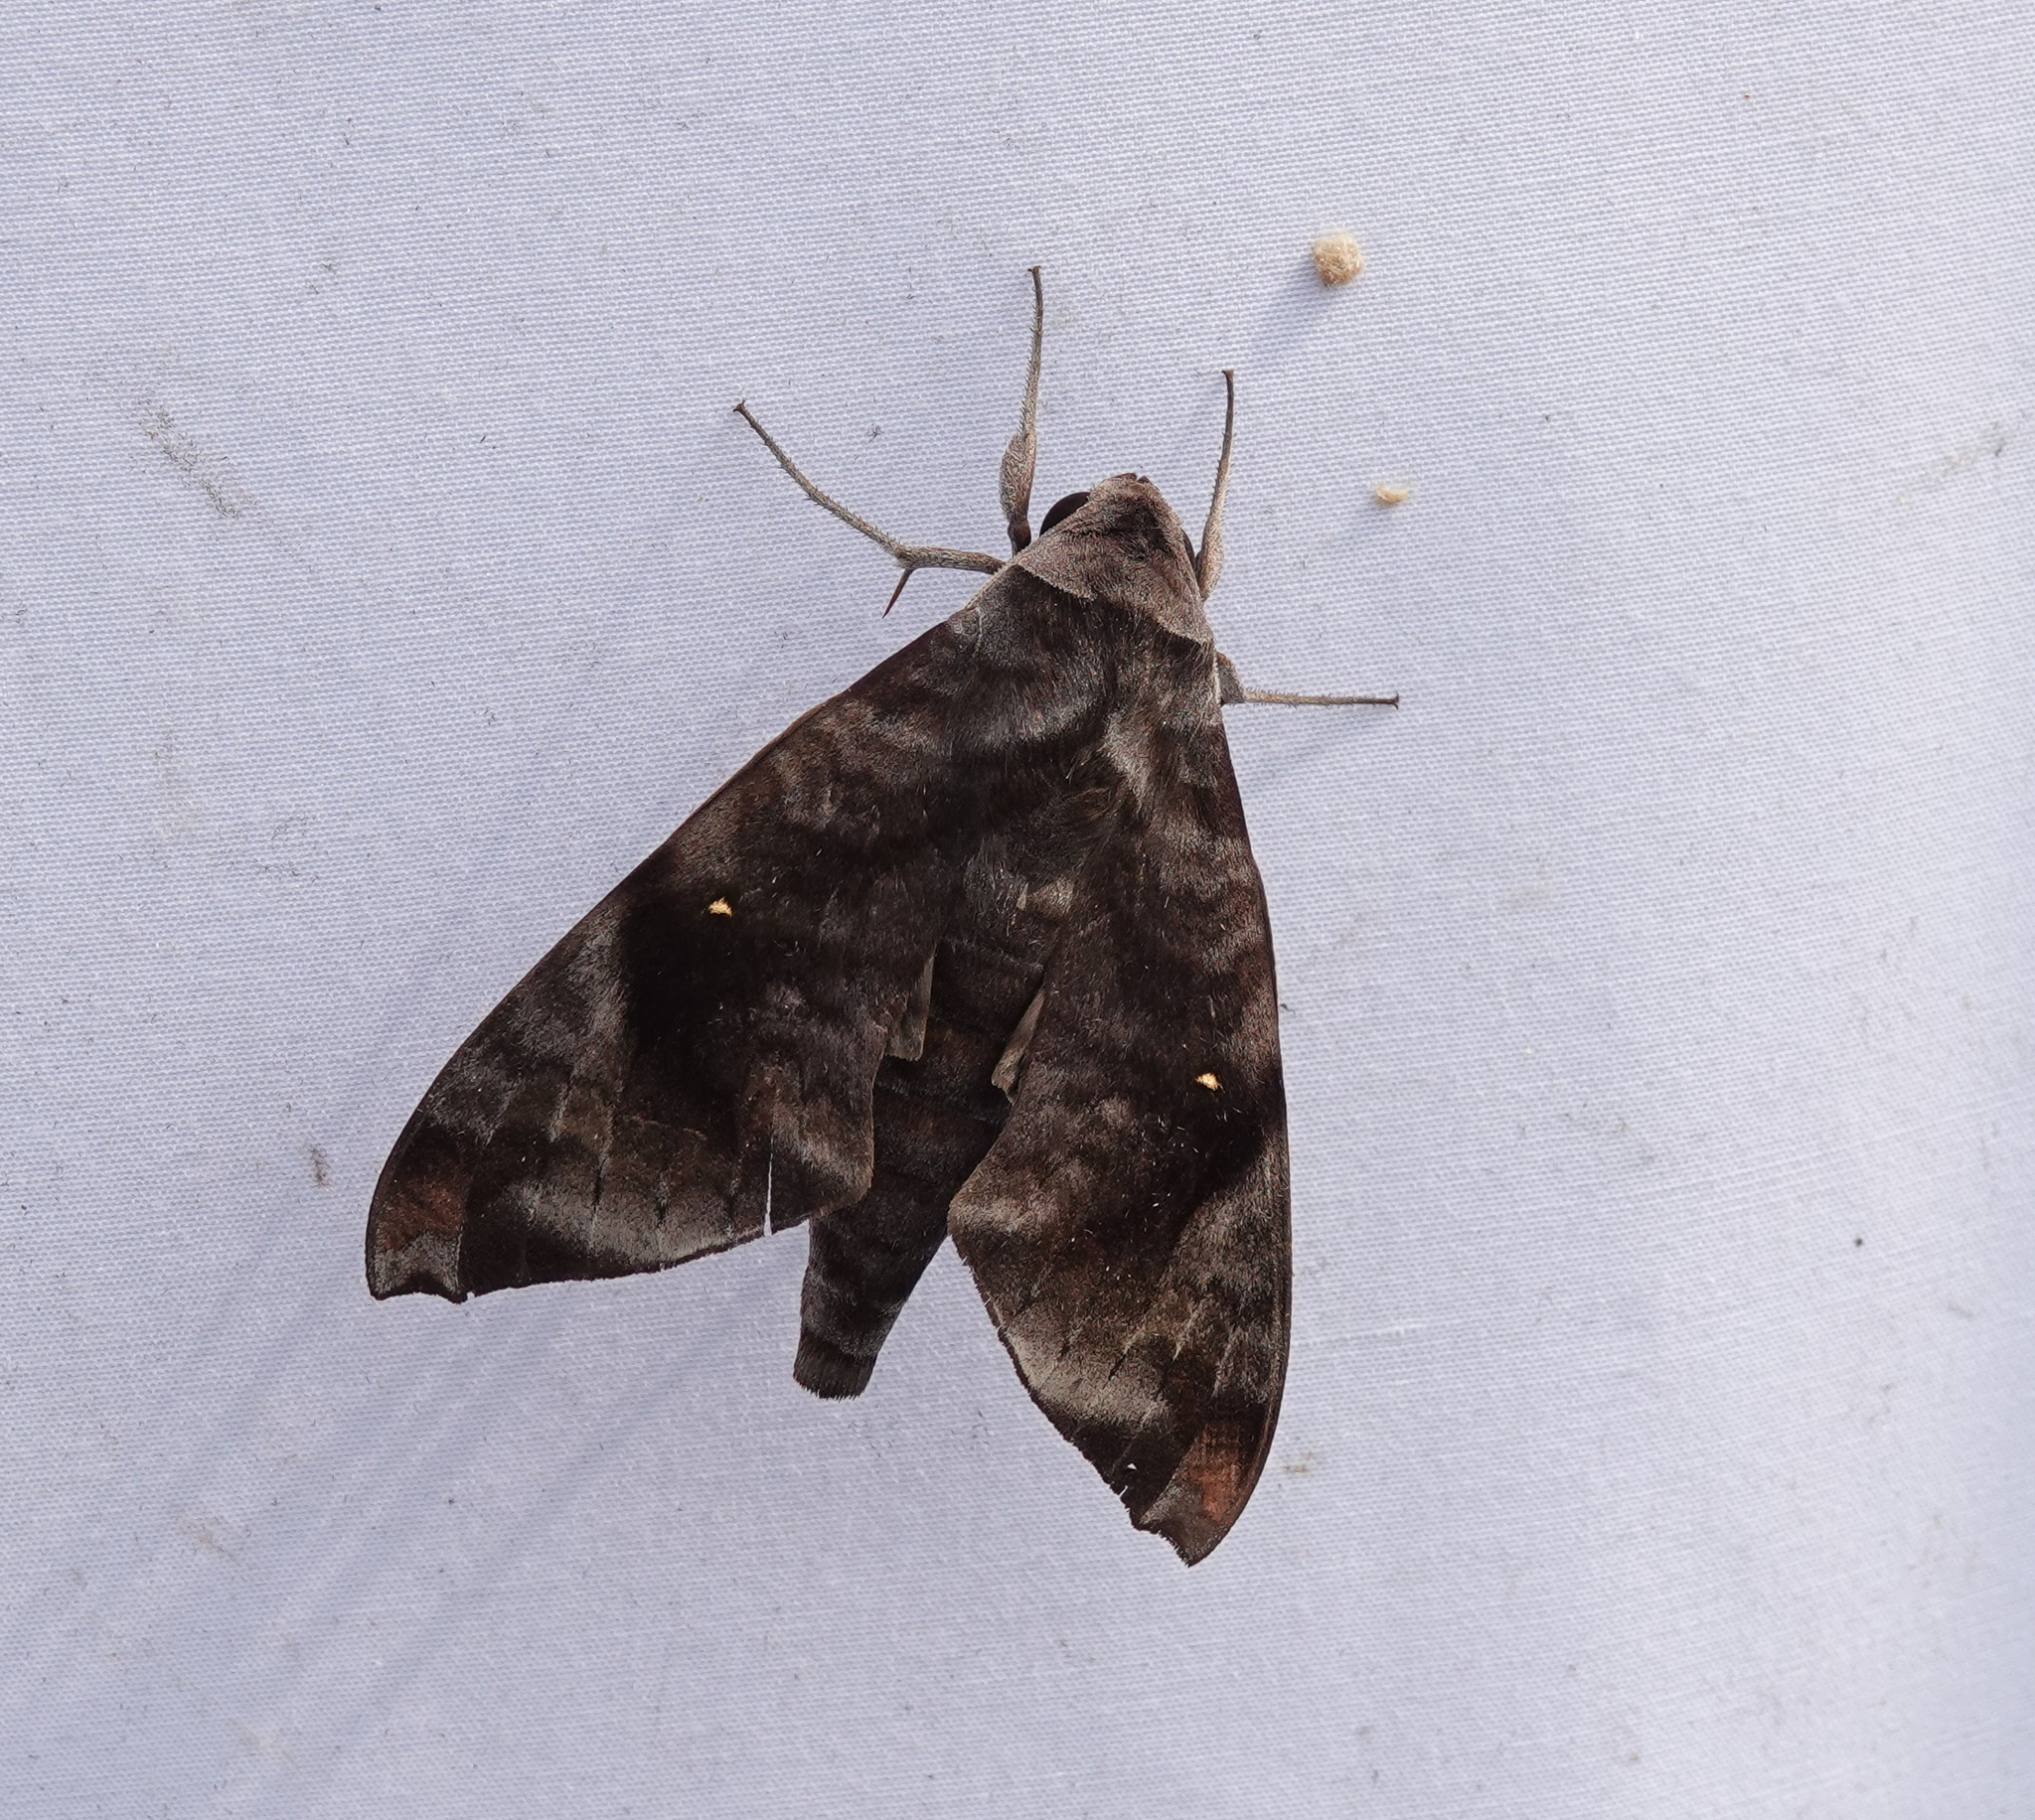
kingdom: Animalia
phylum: Arthropoda
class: Insecta
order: Lepidoptera
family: Sphingidae
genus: Acosmeryx
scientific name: Acosmeryx pseudonaga
